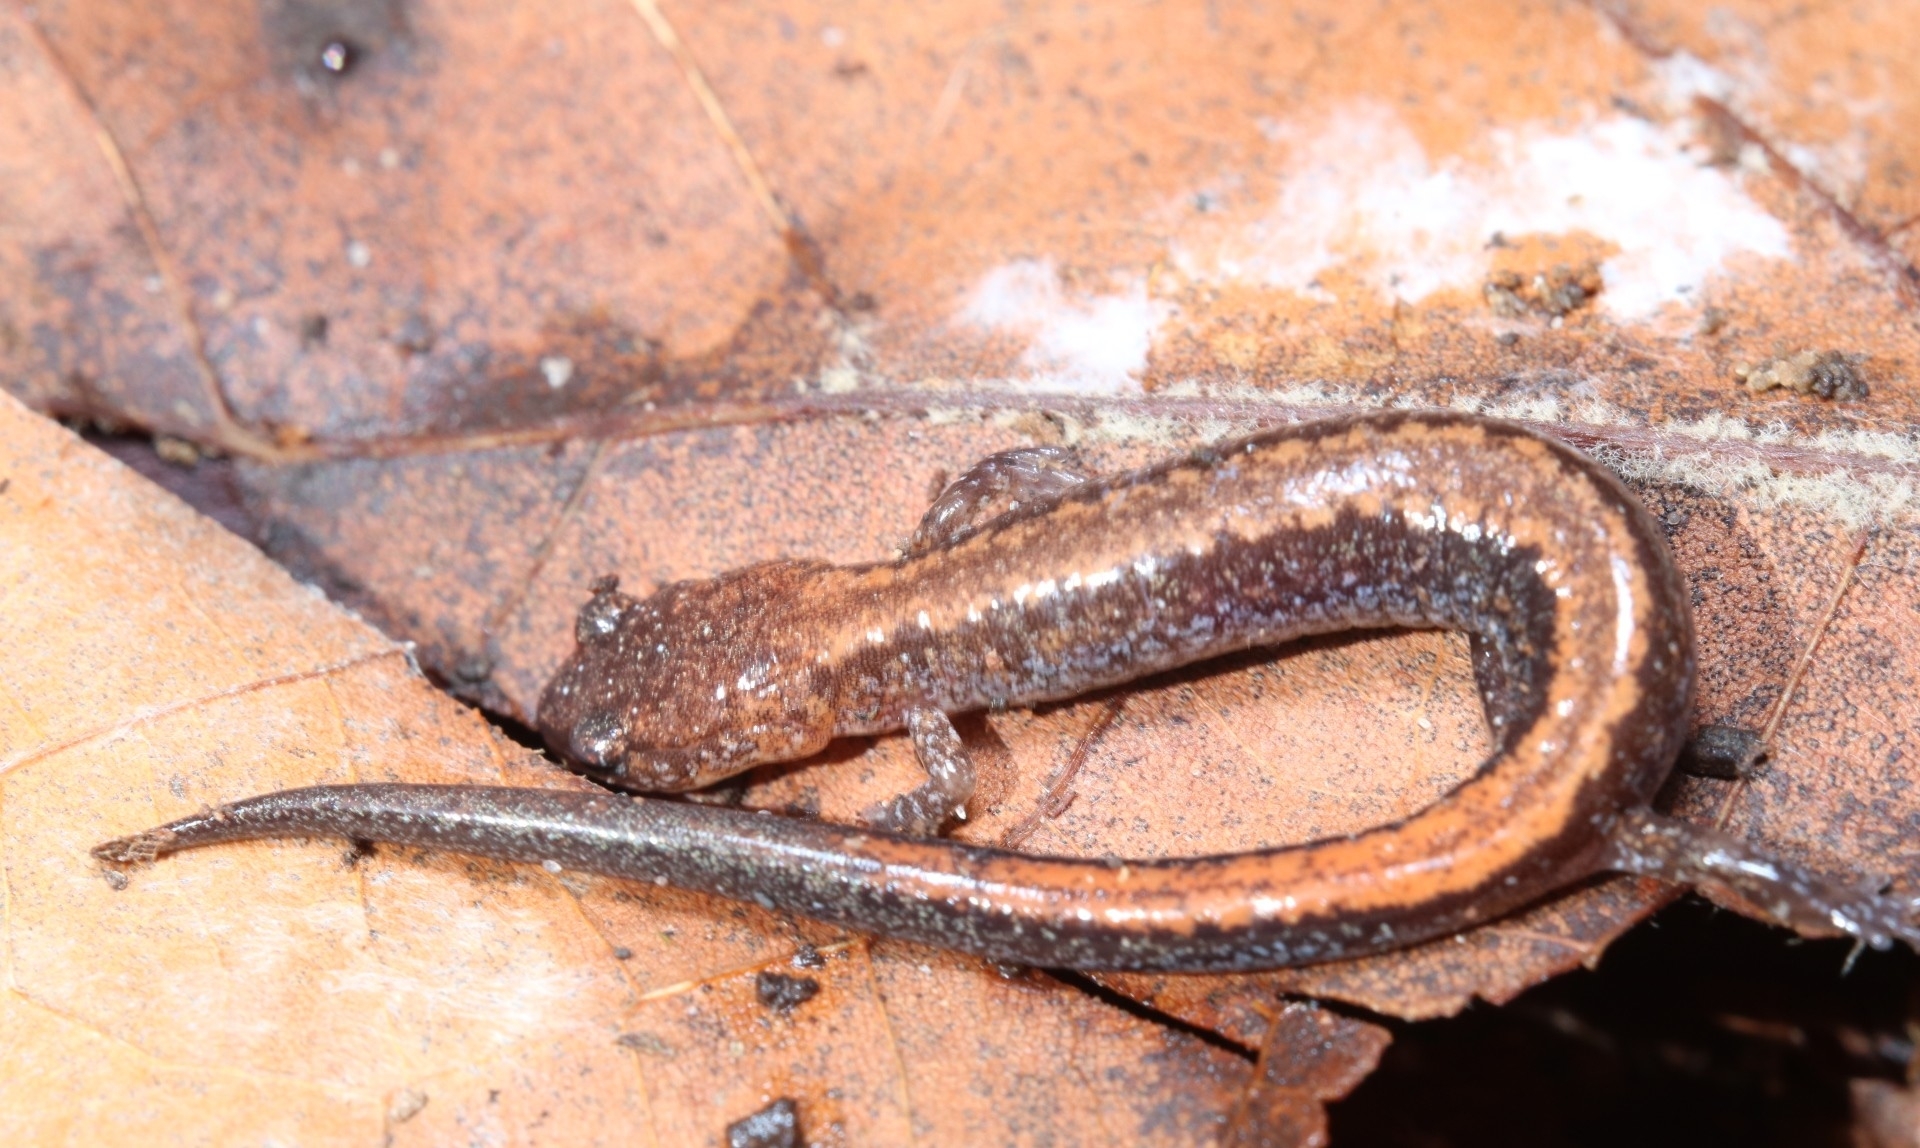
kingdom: Animalia
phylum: Chordata
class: Amphibia
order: Caudata
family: Plethodontidae
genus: Plethodon
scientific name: Plethodon cinereus
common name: Redback salamander
